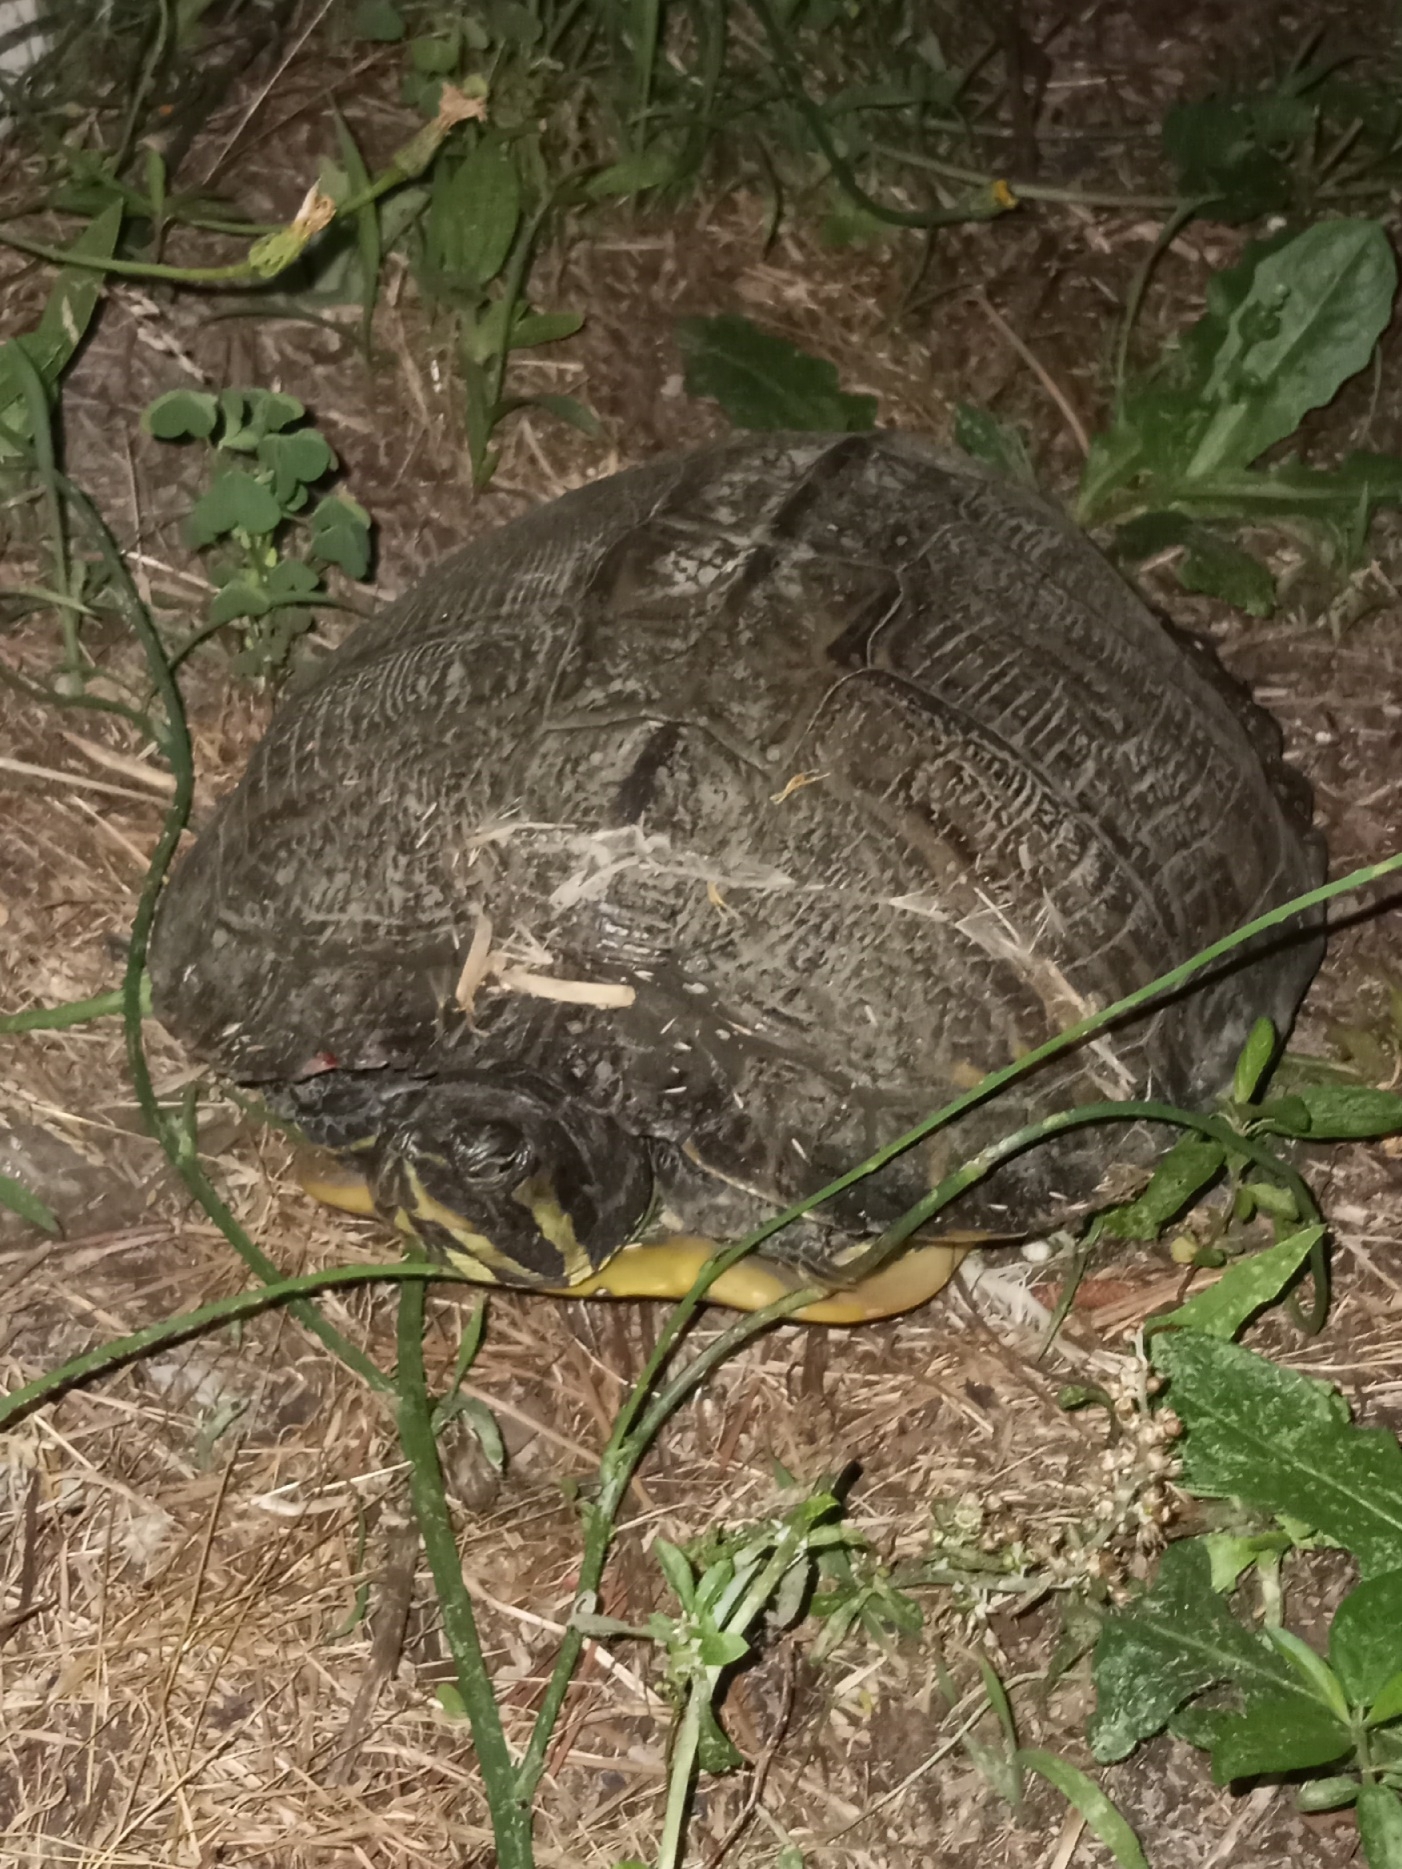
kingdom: Animalia
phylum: Chordata
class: Testudines
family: Emydidae
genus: Trachemys
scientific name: Trachemys scripta
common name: Slider
